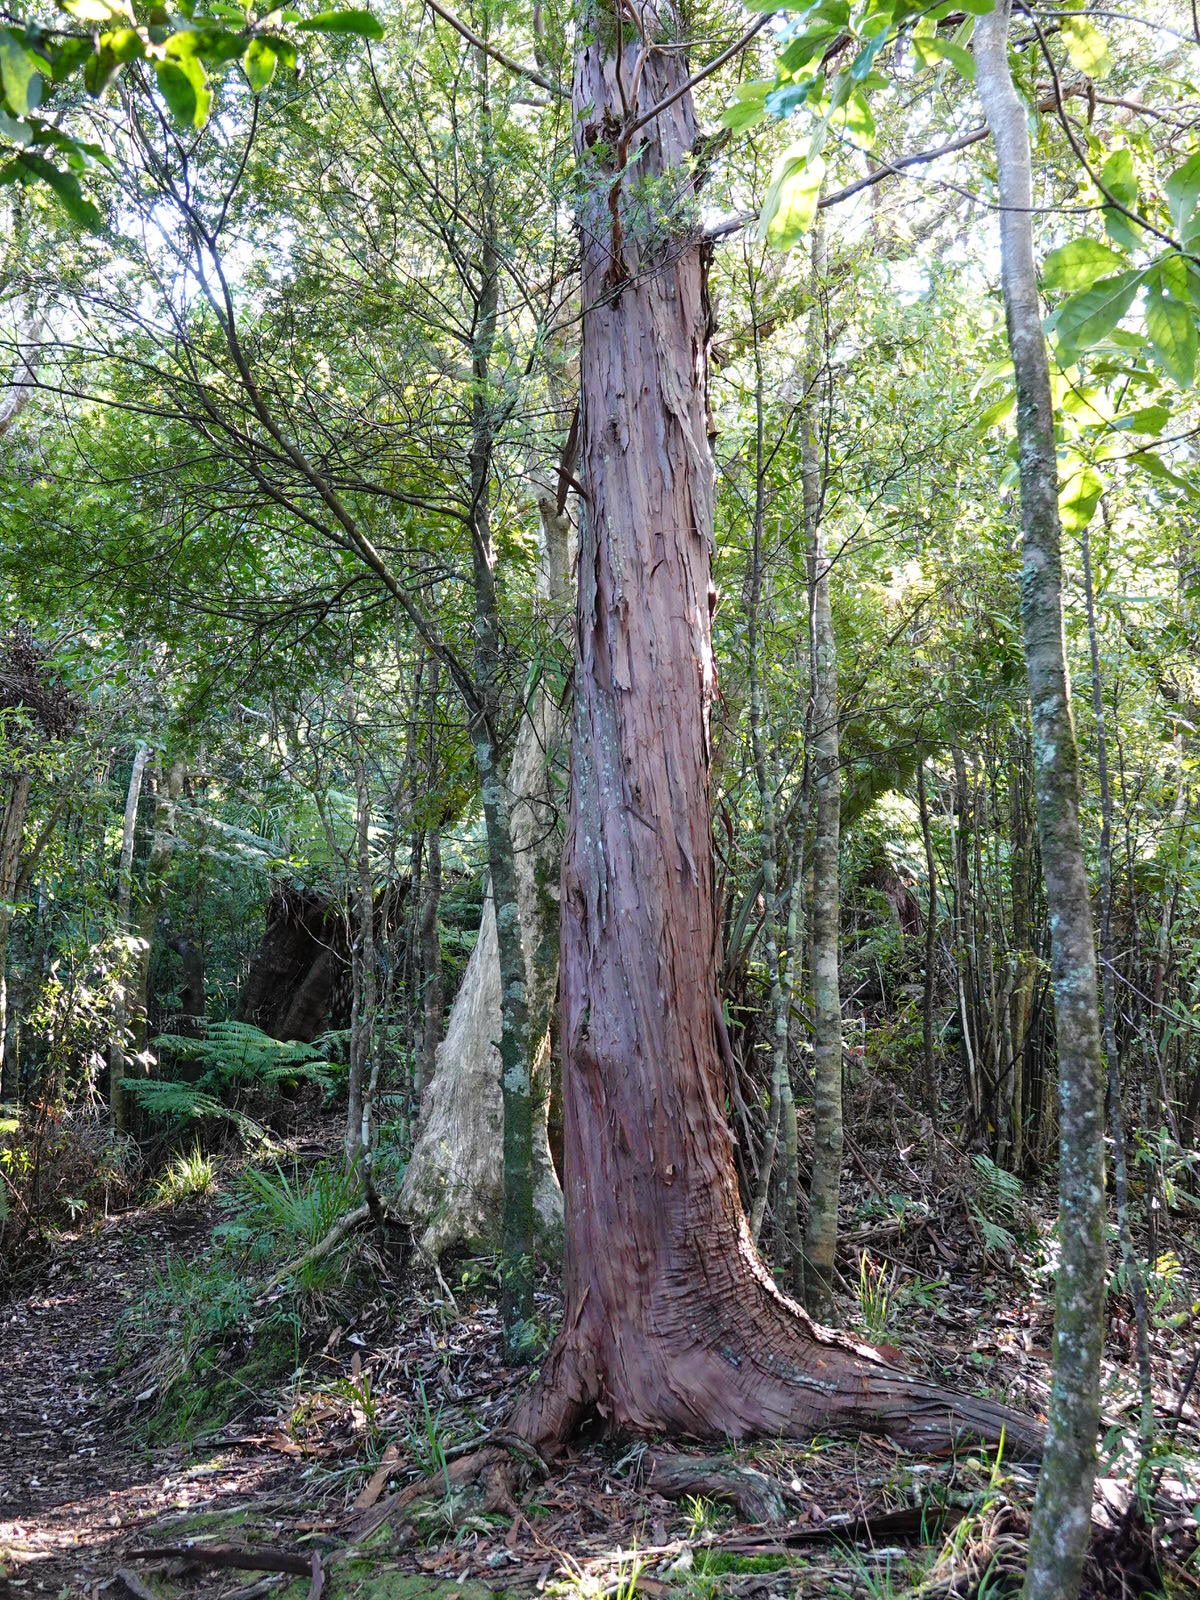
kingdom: Plantae
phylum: Tracheophyta
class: Pinopsida
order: Pinales
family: Cupressaceae
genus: Libocedrus
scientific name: Libocedrus plumosa
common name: New zealand cedar
